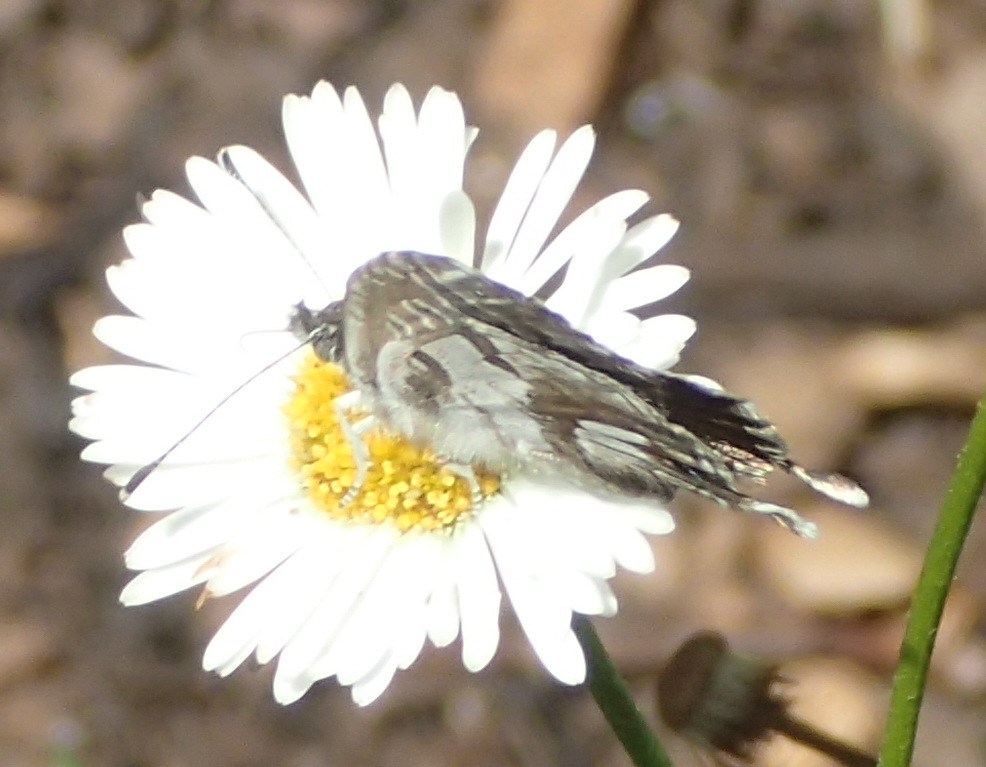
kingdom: Animalia
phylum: Arthropoda
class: Insecta
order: Lepidoptera
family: Lycaenidae
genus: Cacyreus
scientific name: Cacyreus marshalli
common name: Geranium bronze
